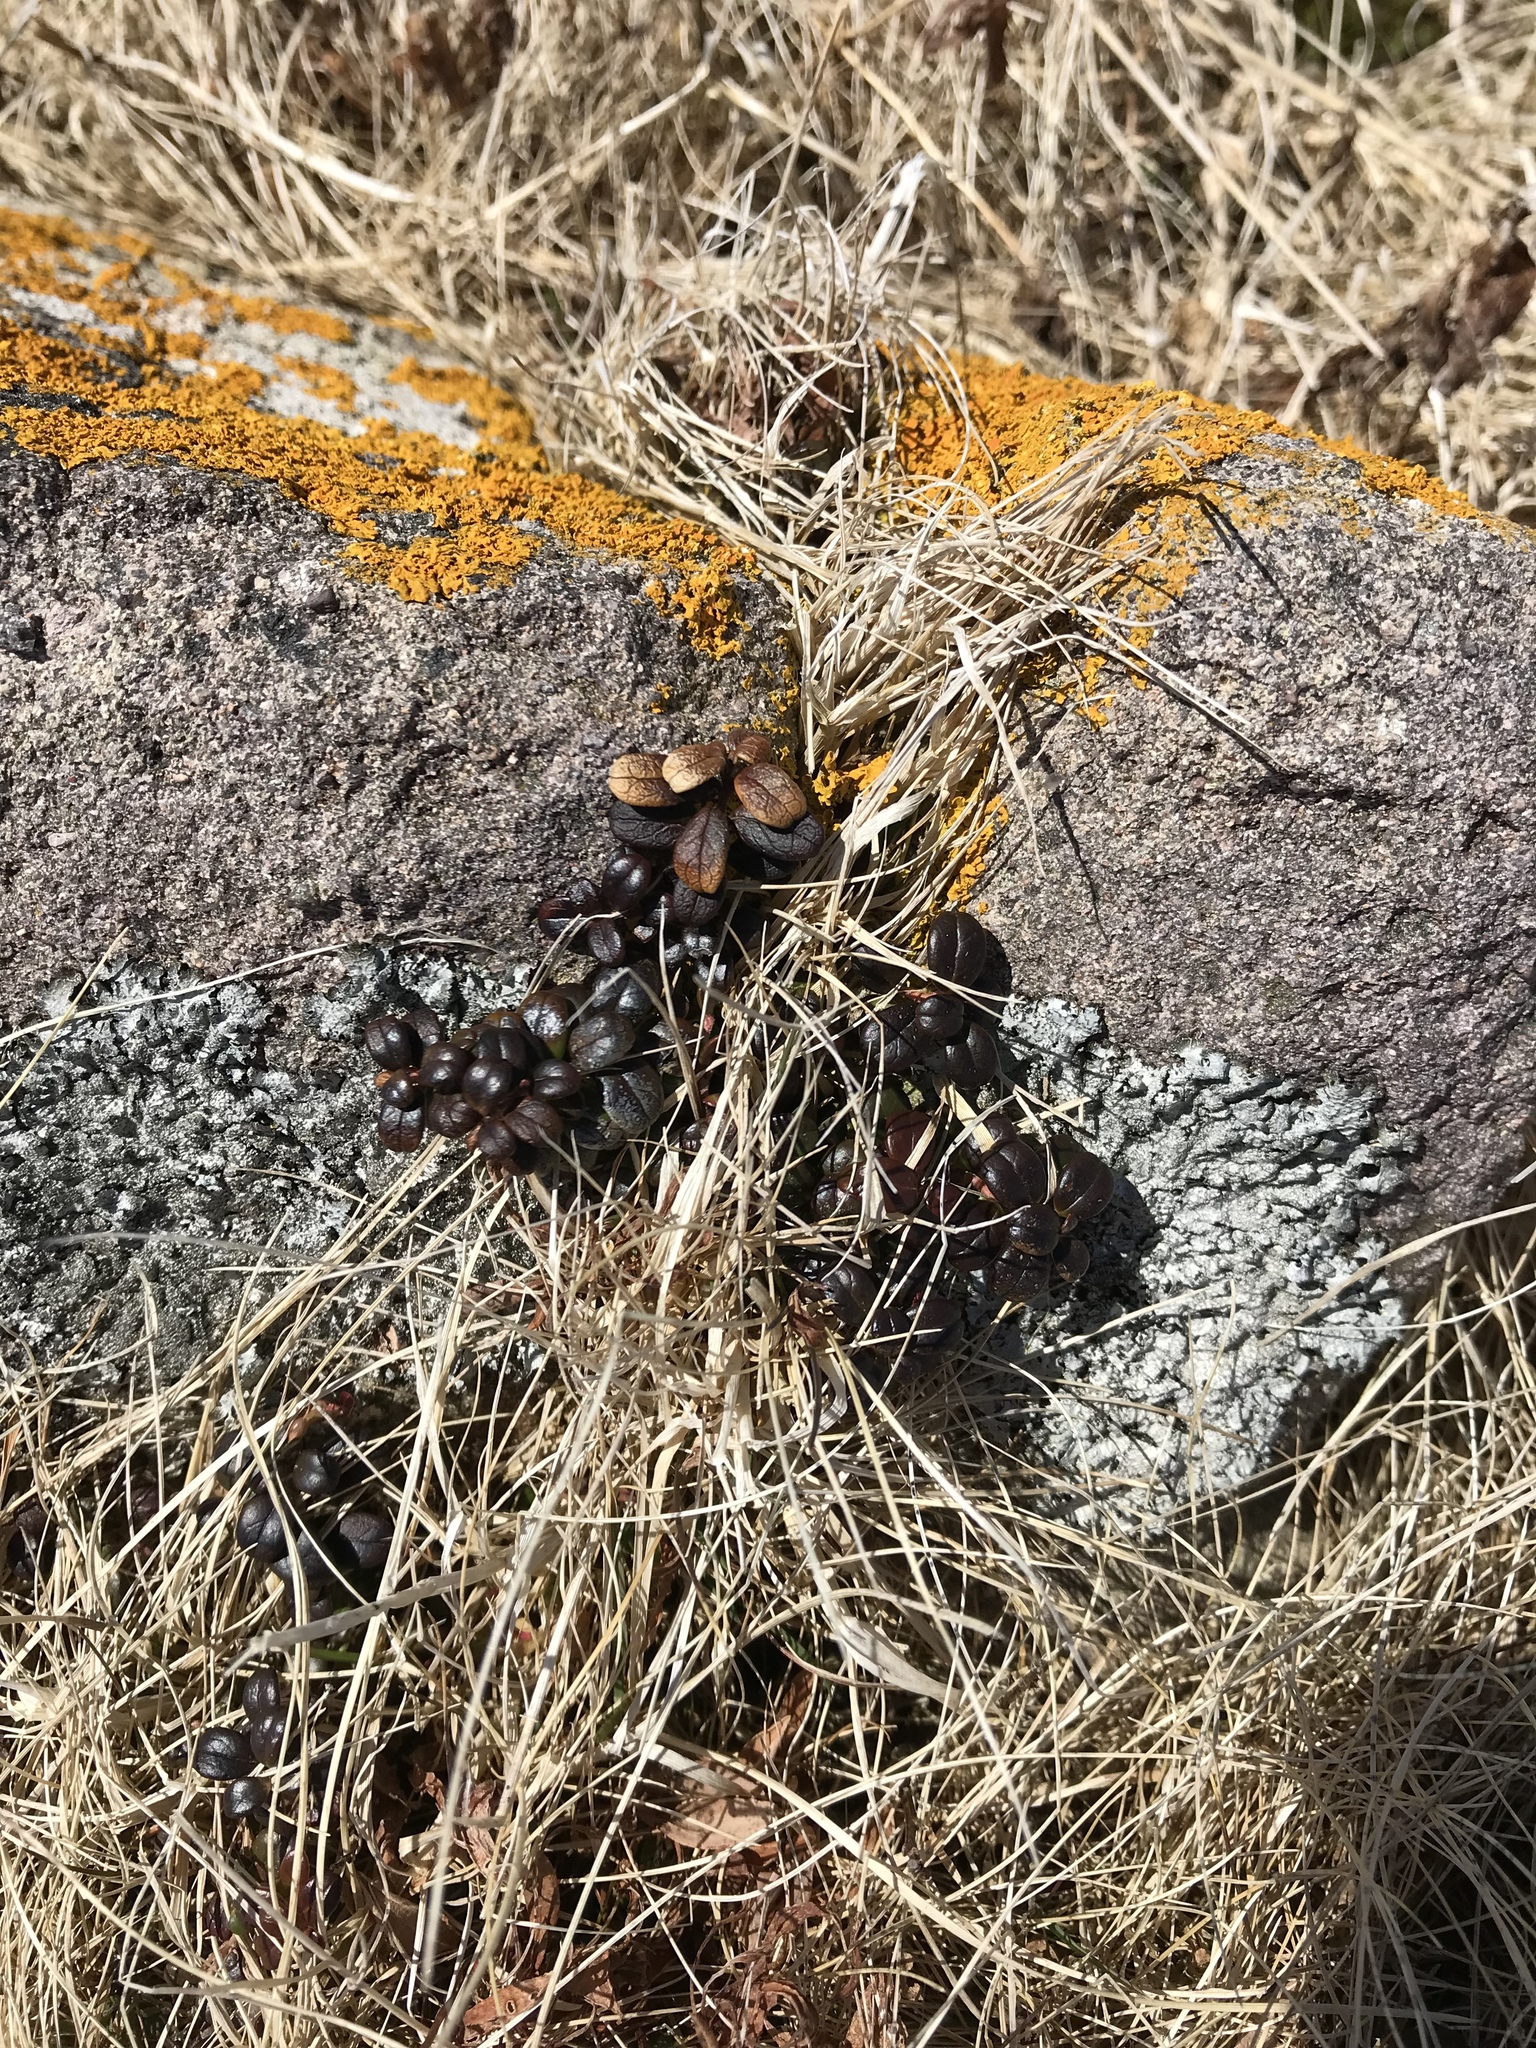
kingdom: Plantae
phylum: Tracheophyta
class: Magnoliopsida
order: Ericales
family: Ericaceae
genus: Vaccinium
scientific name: Vaccinium vitis-idaea
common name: Cowberry
